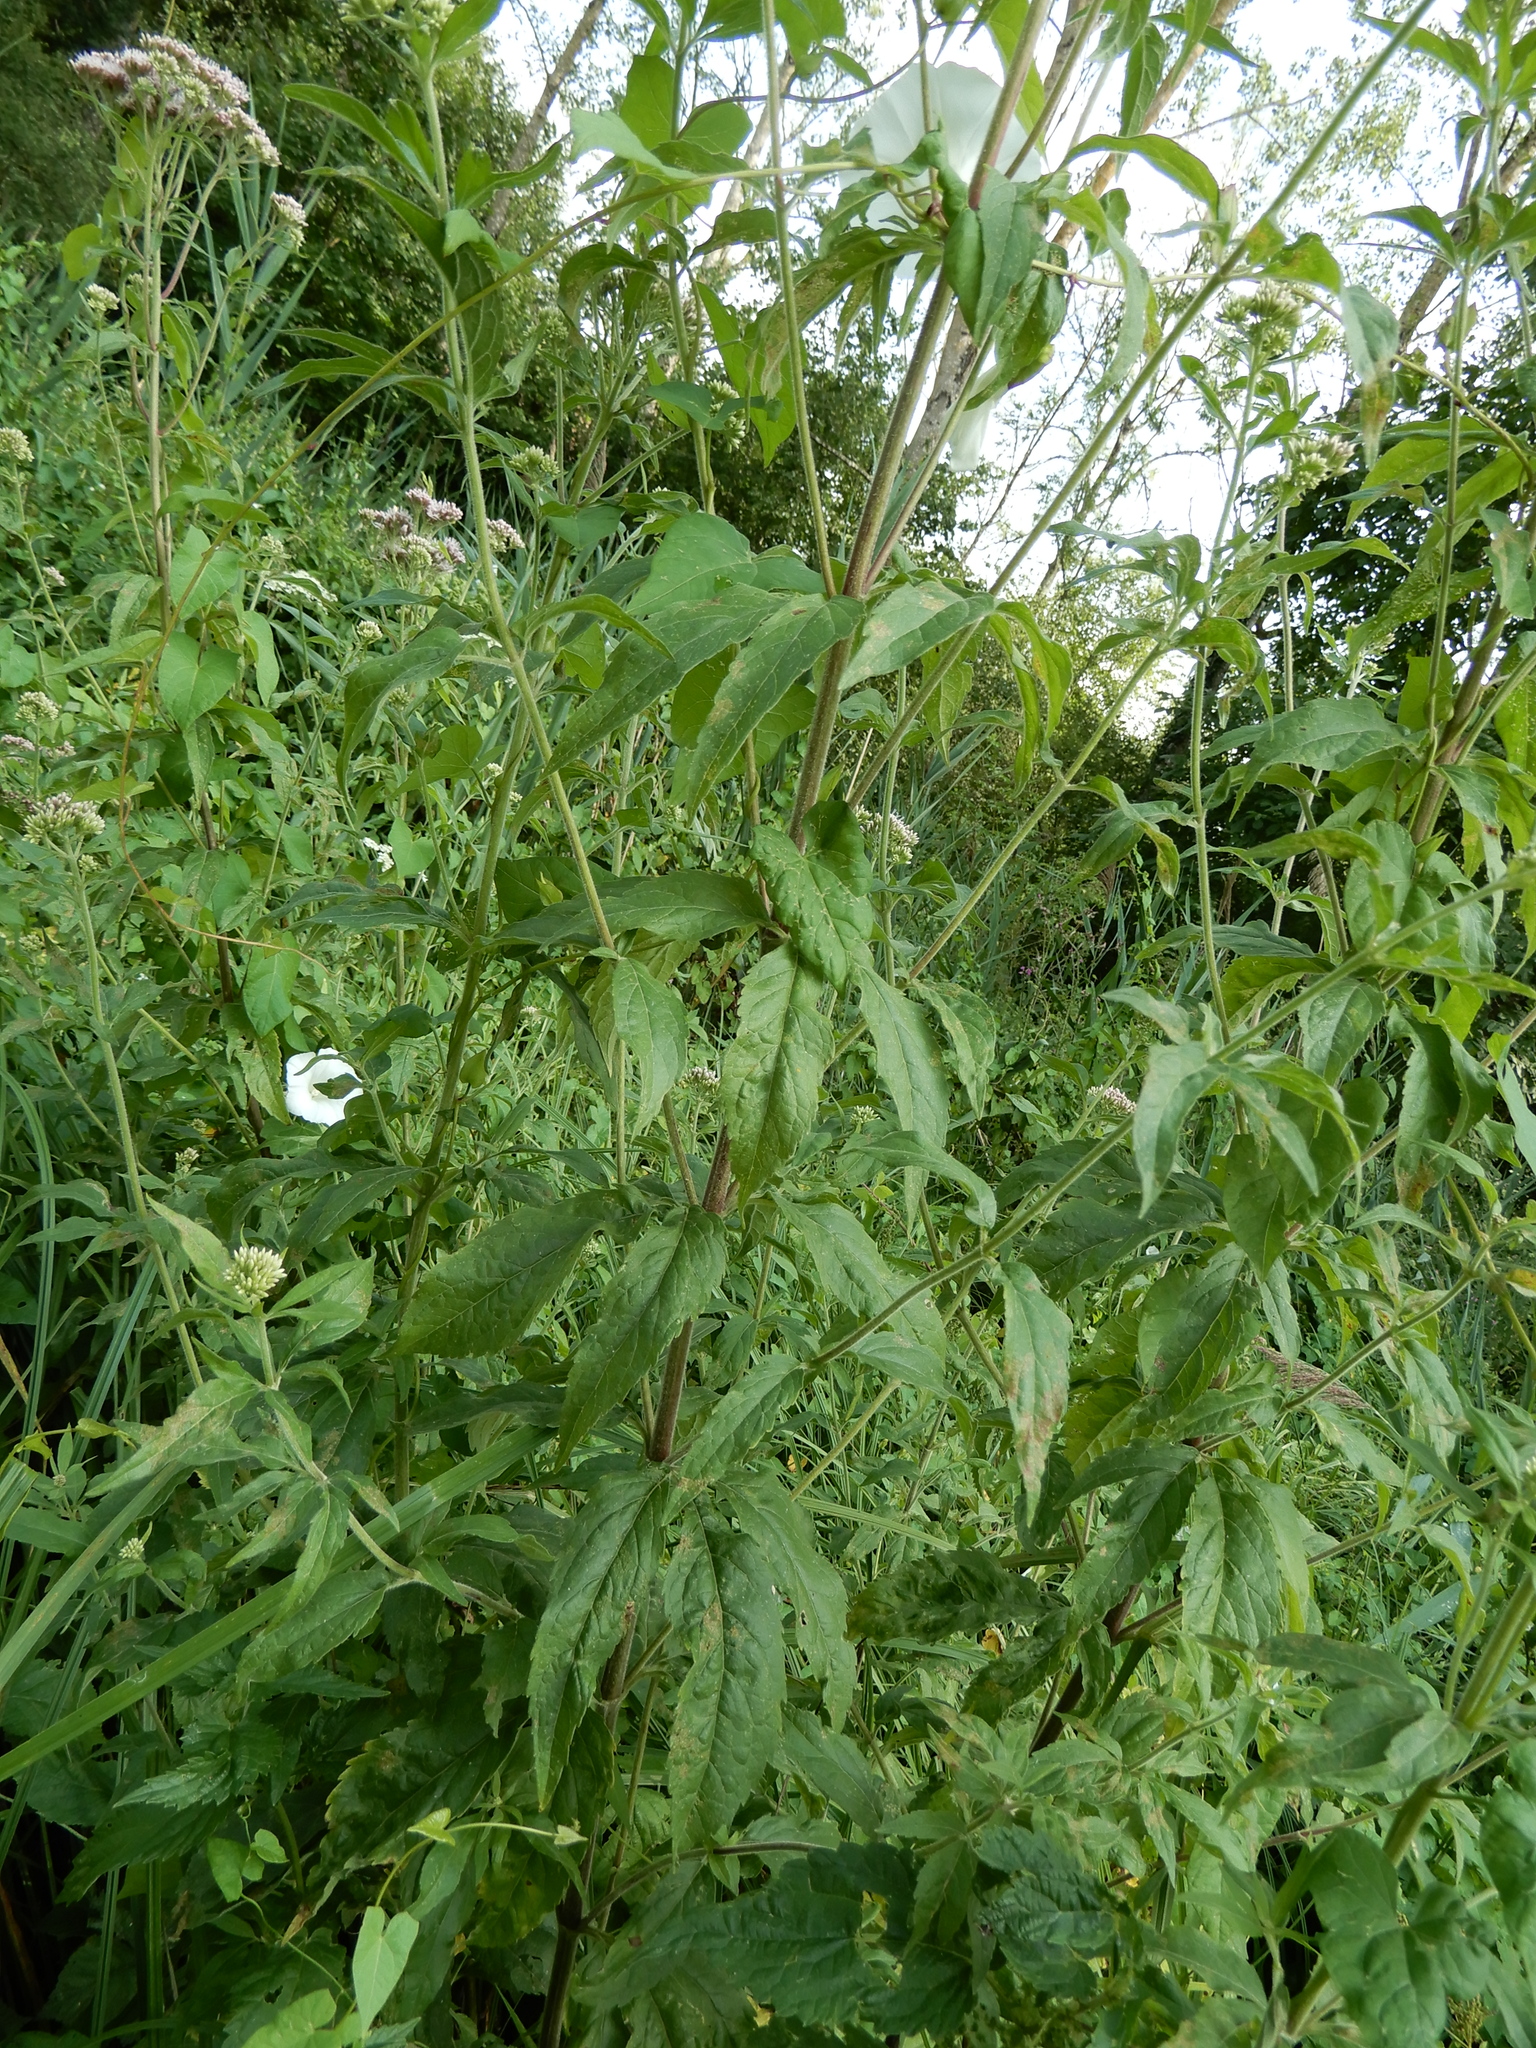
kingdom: Plantae
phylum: Tracheophyta
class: Magnoliopsida
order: Asterales
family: Asteraceae
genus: Eupatorium
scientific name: Eupatorium cannabinum
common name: Hemp-agrimony
